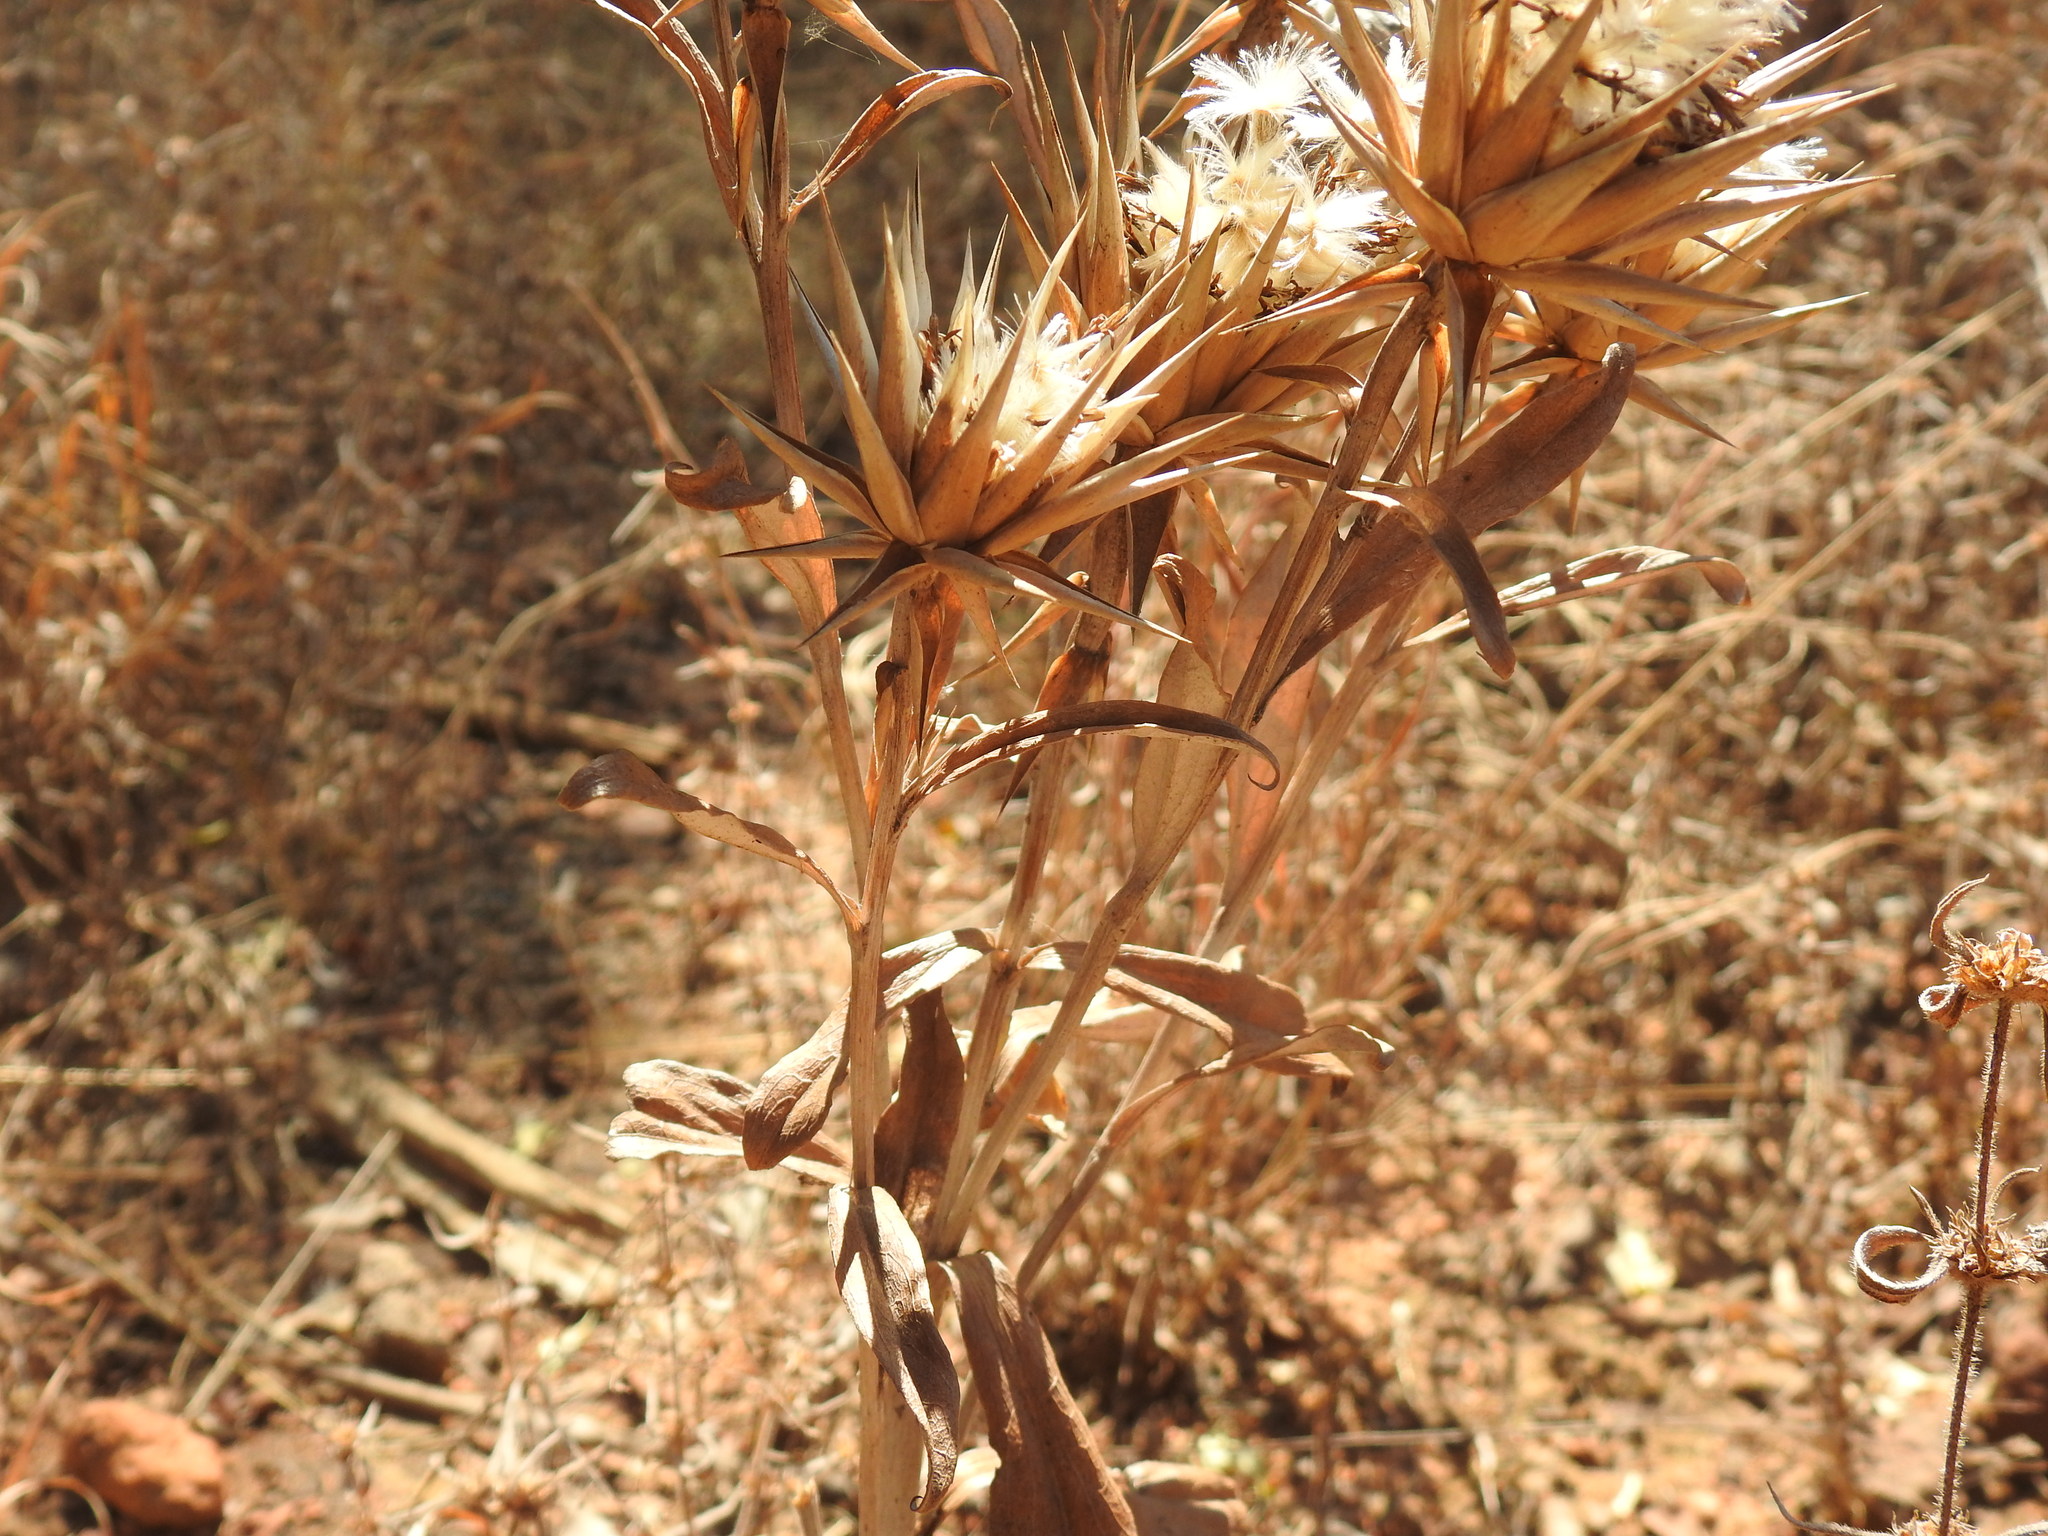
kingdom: Plantae
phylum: Tracheophyta
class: Magnoliopsida
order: Asterales
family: Asteraceae
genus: Macledium
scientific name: Macledium zeyheri
